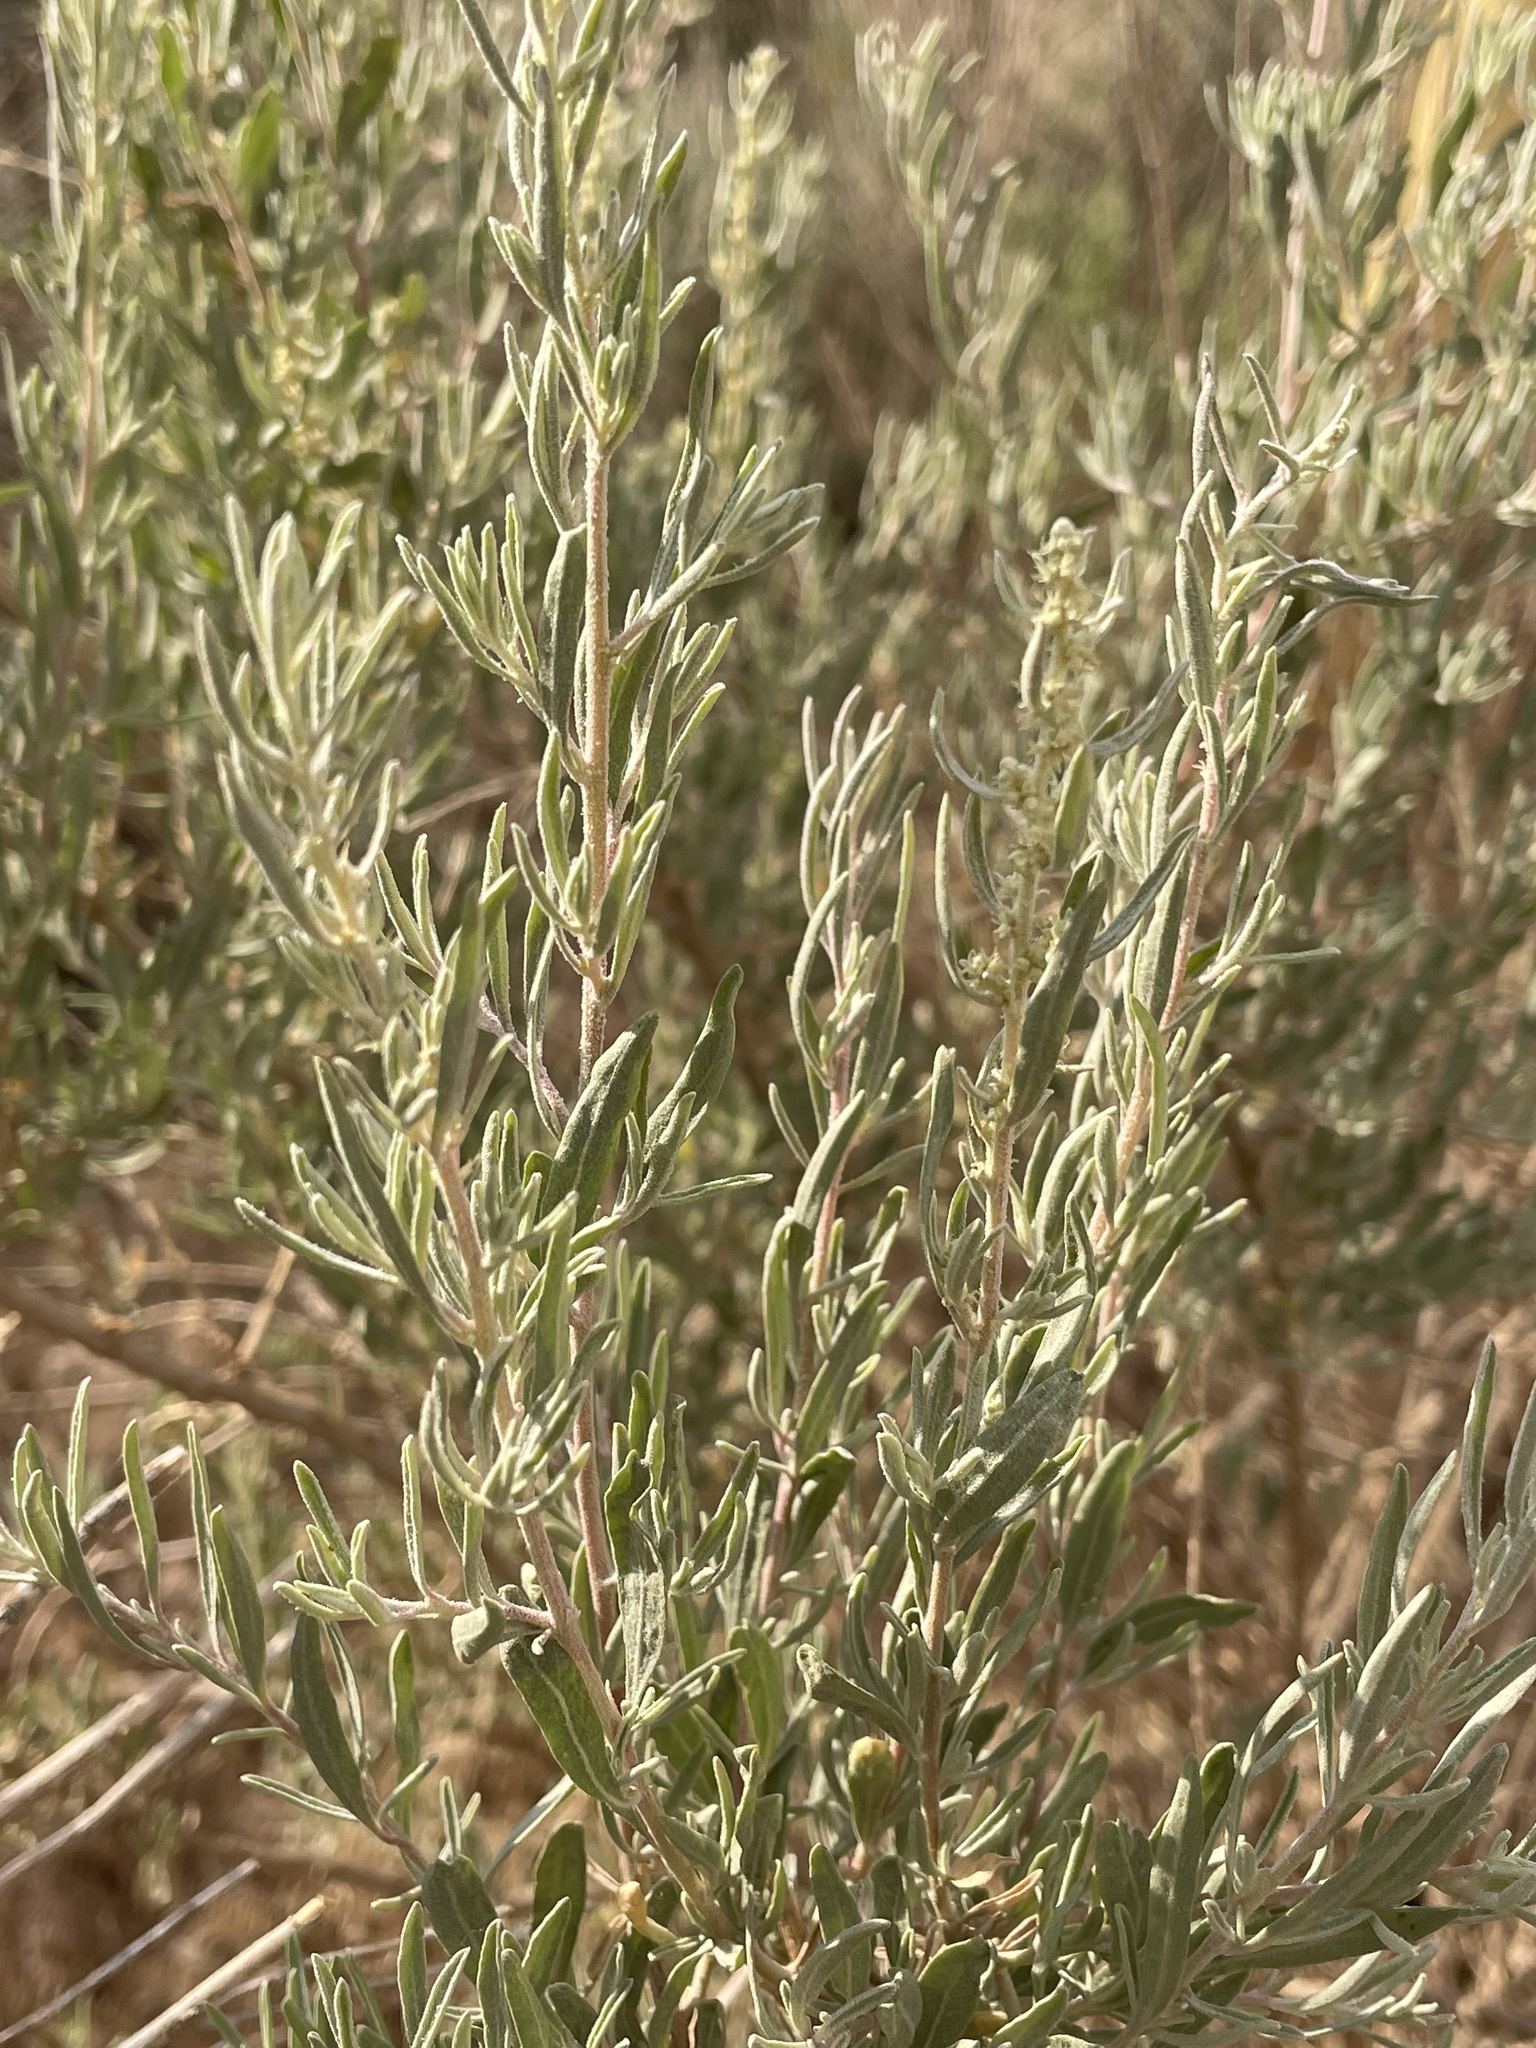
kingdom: Plantae
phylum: Tracheophyta
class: Magnoliopsida
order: Caryophyllales
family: Amaranthaceae
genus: Atriplex
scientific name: Atriplex canescens
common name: Four-wing saltbush
